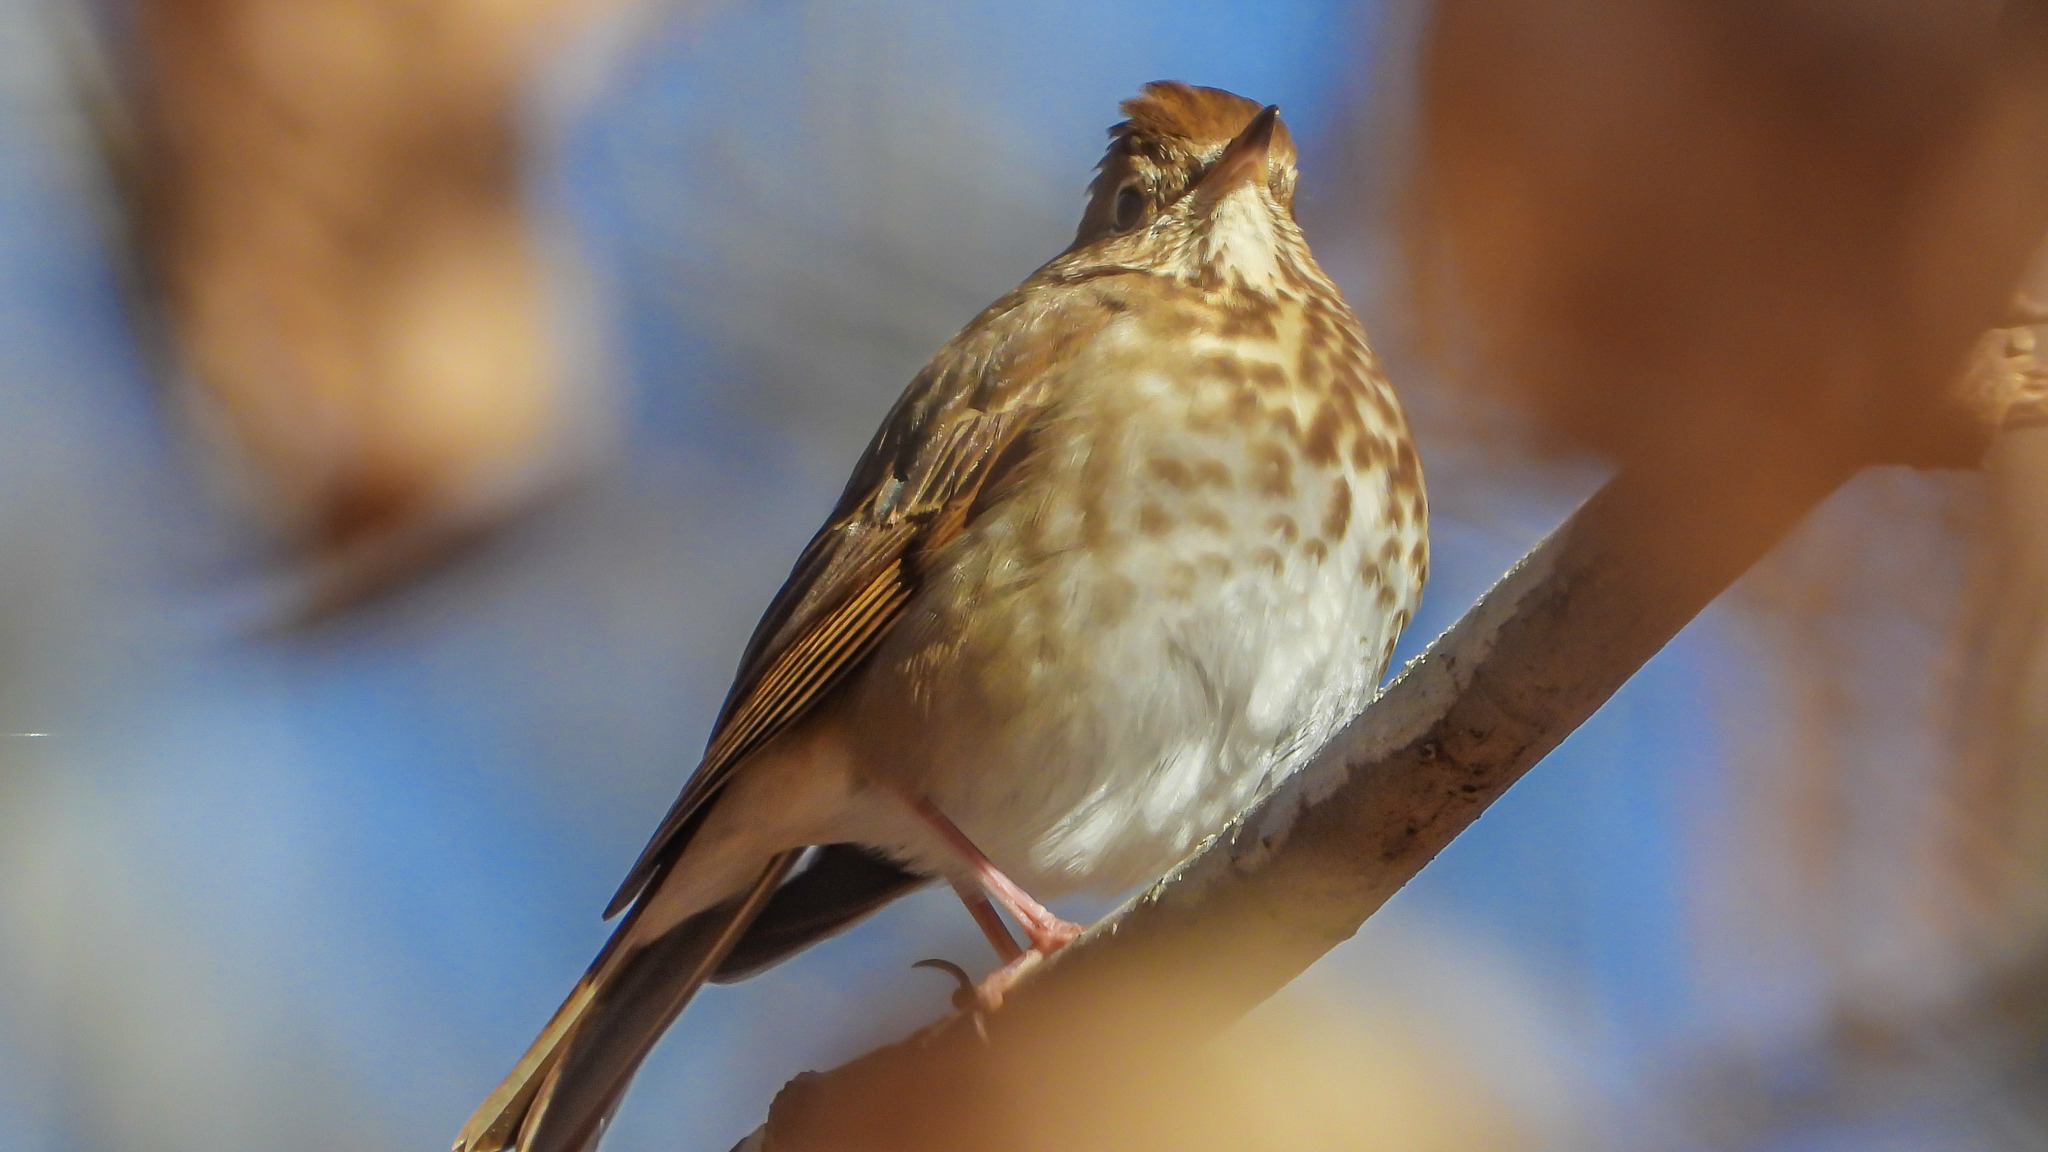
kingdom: Animalia
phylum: Chordata
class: Aves
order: Passeriformes
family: Turdidae
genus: Catharus
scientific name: Catharus guttatus
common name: Hermit thrush
